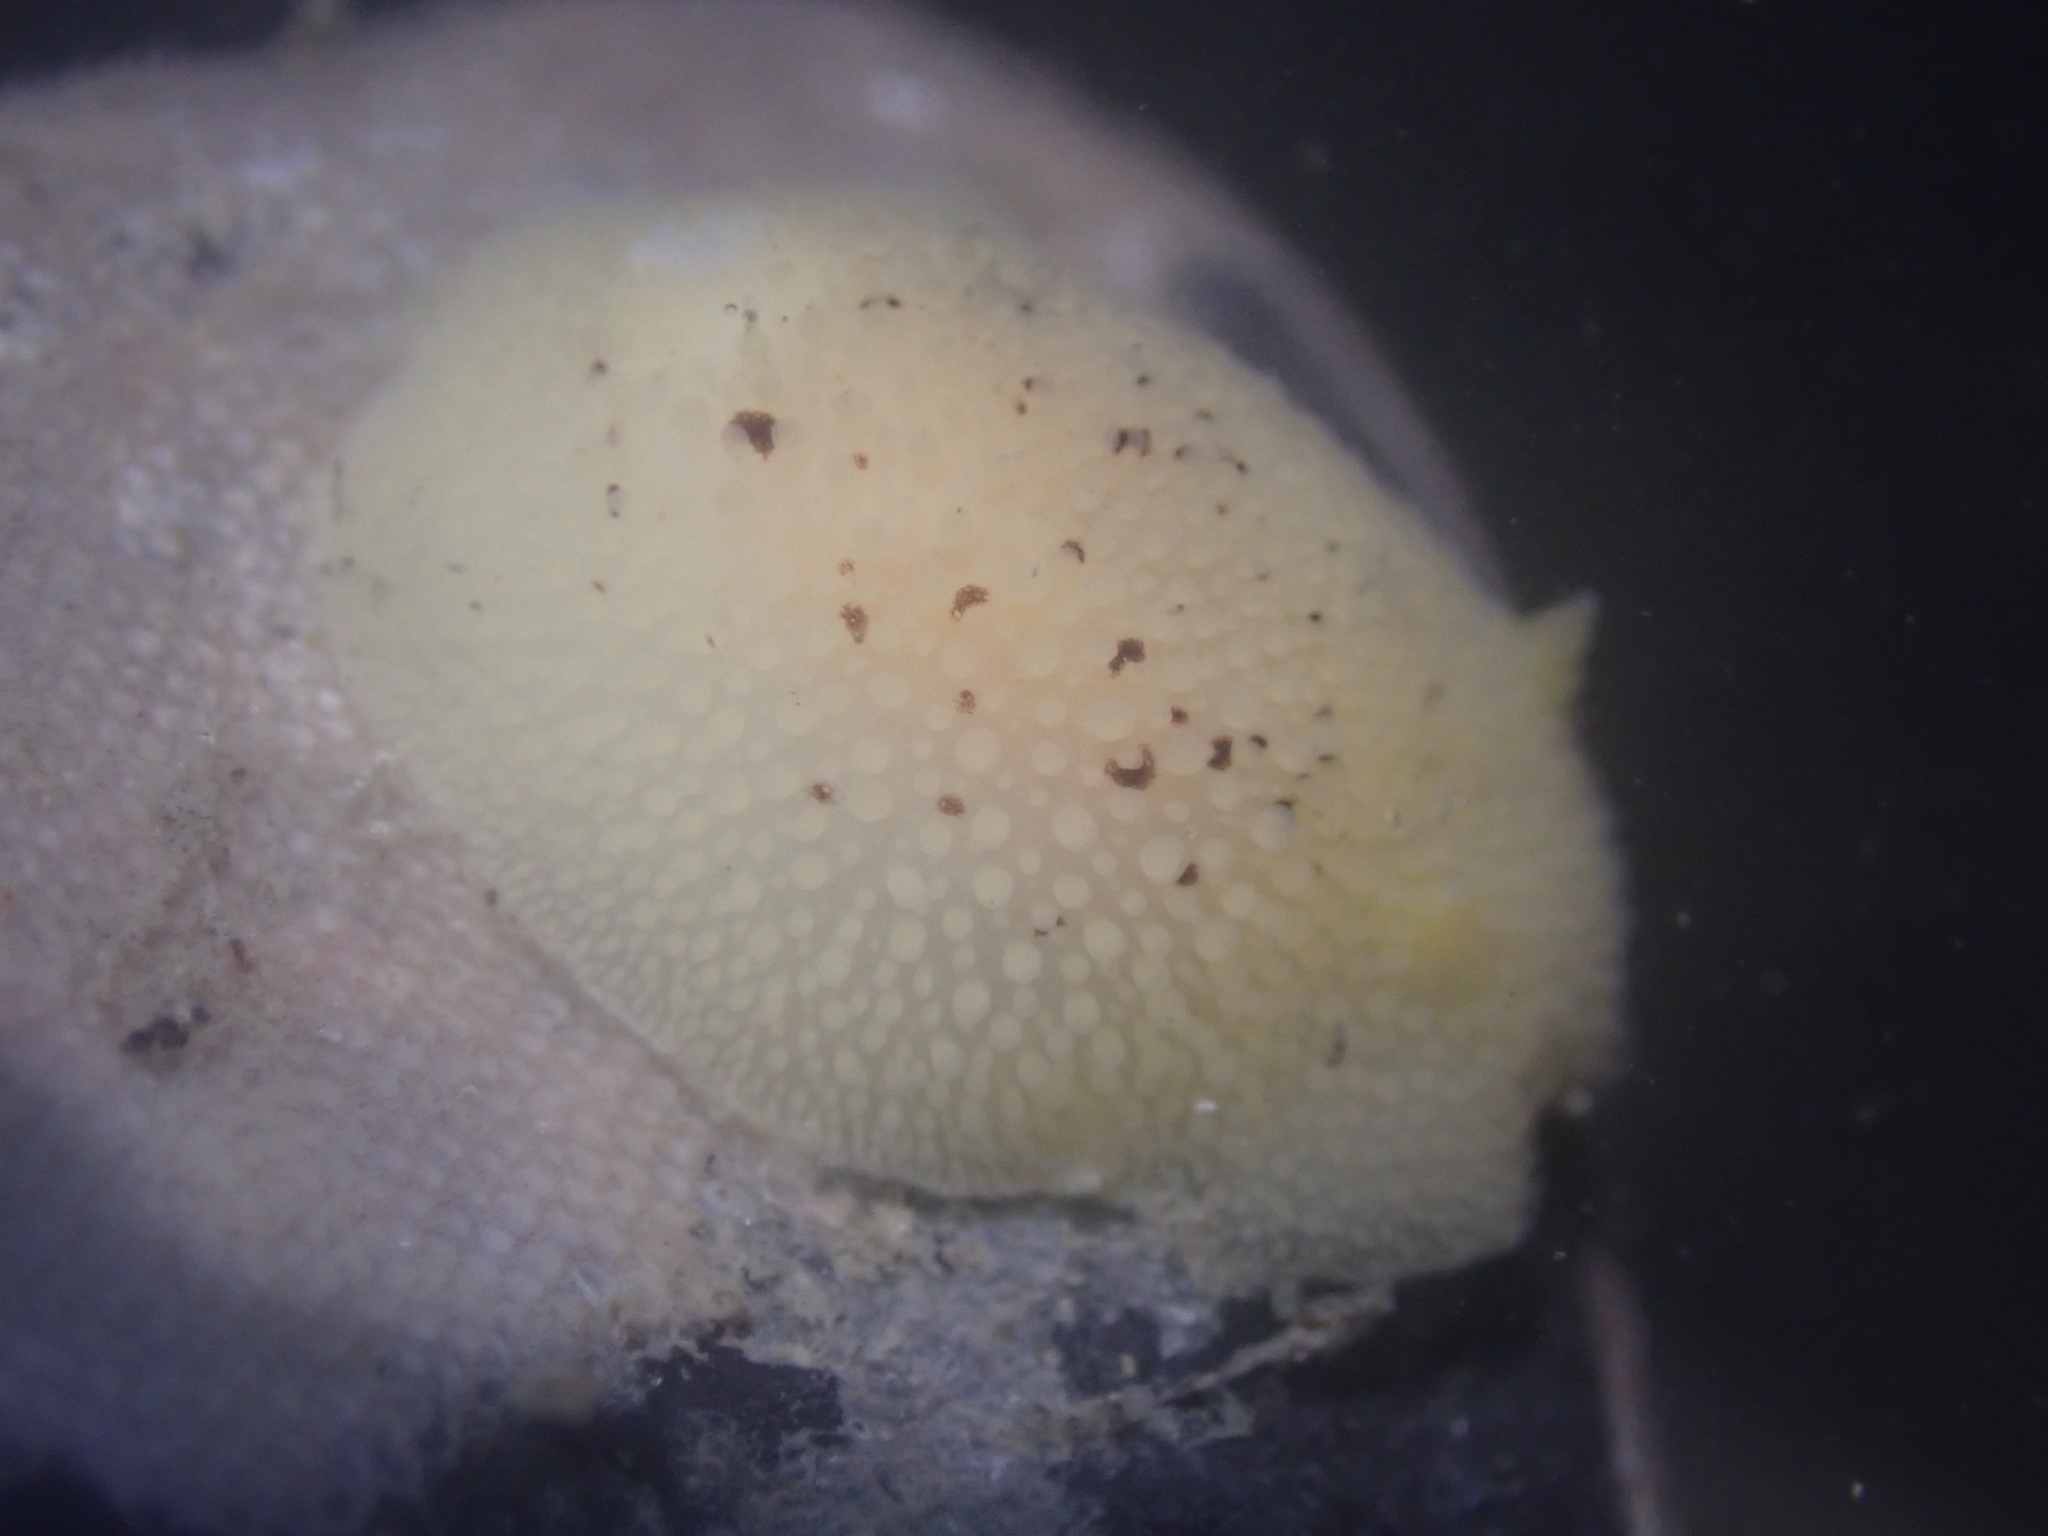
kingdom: Animalia
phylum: Mollusca
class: Gastropoda
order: Nudibranchia
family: Discodorididae
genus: Peltodoris
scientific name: Peltodoris nobilis
